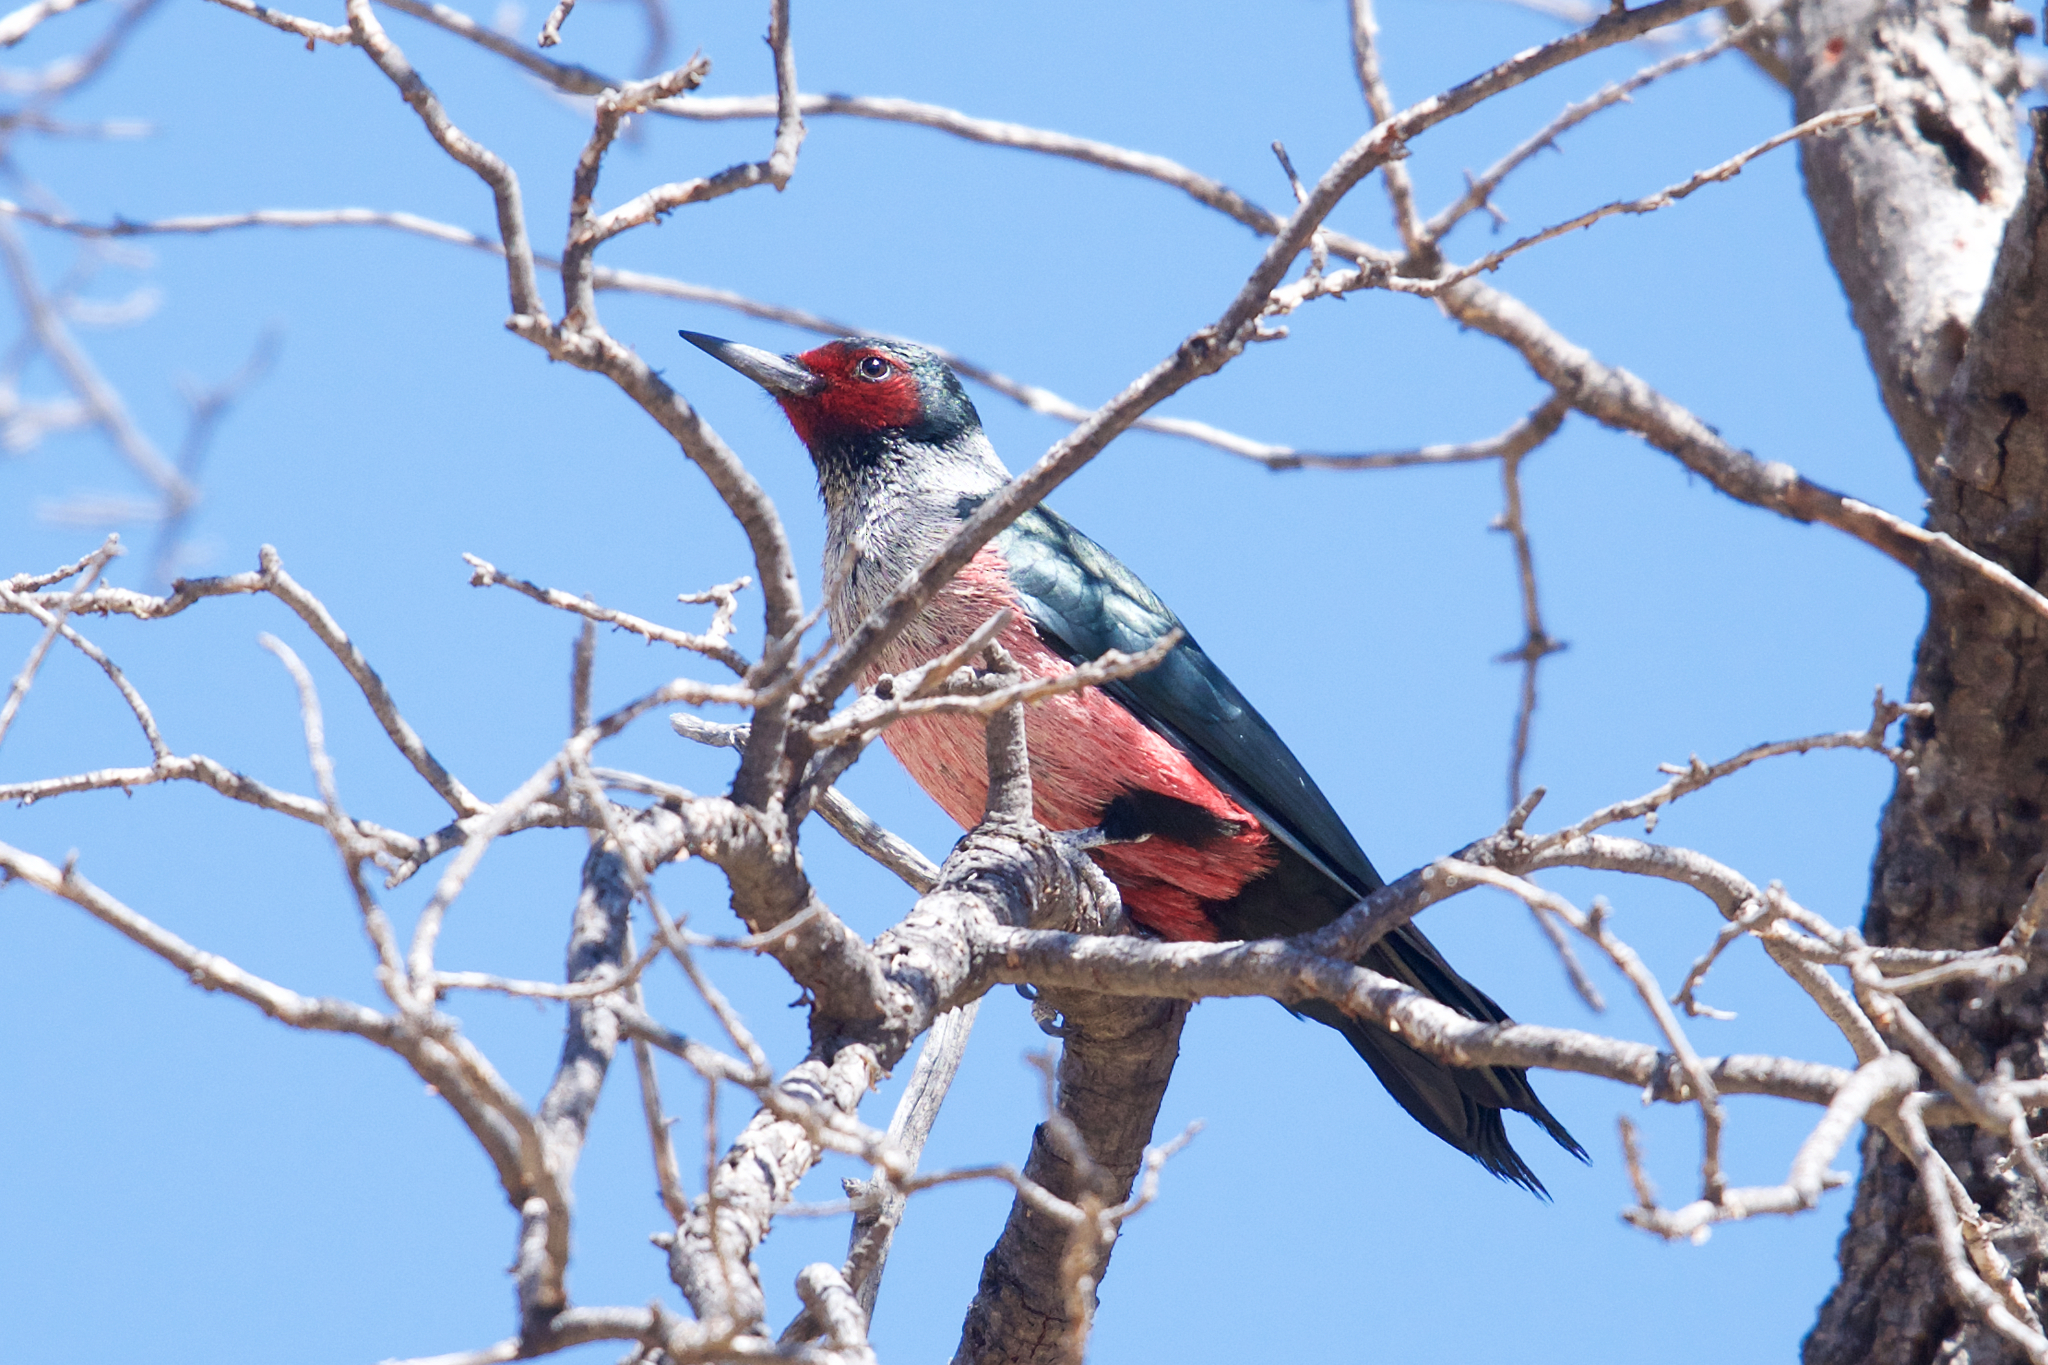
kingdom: Animalia
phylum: Chordata
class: Aves
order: Piciformes
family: Picidae
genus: Melanerpes
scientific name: Melanerpes lewis
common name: Lewis's woodpecker
